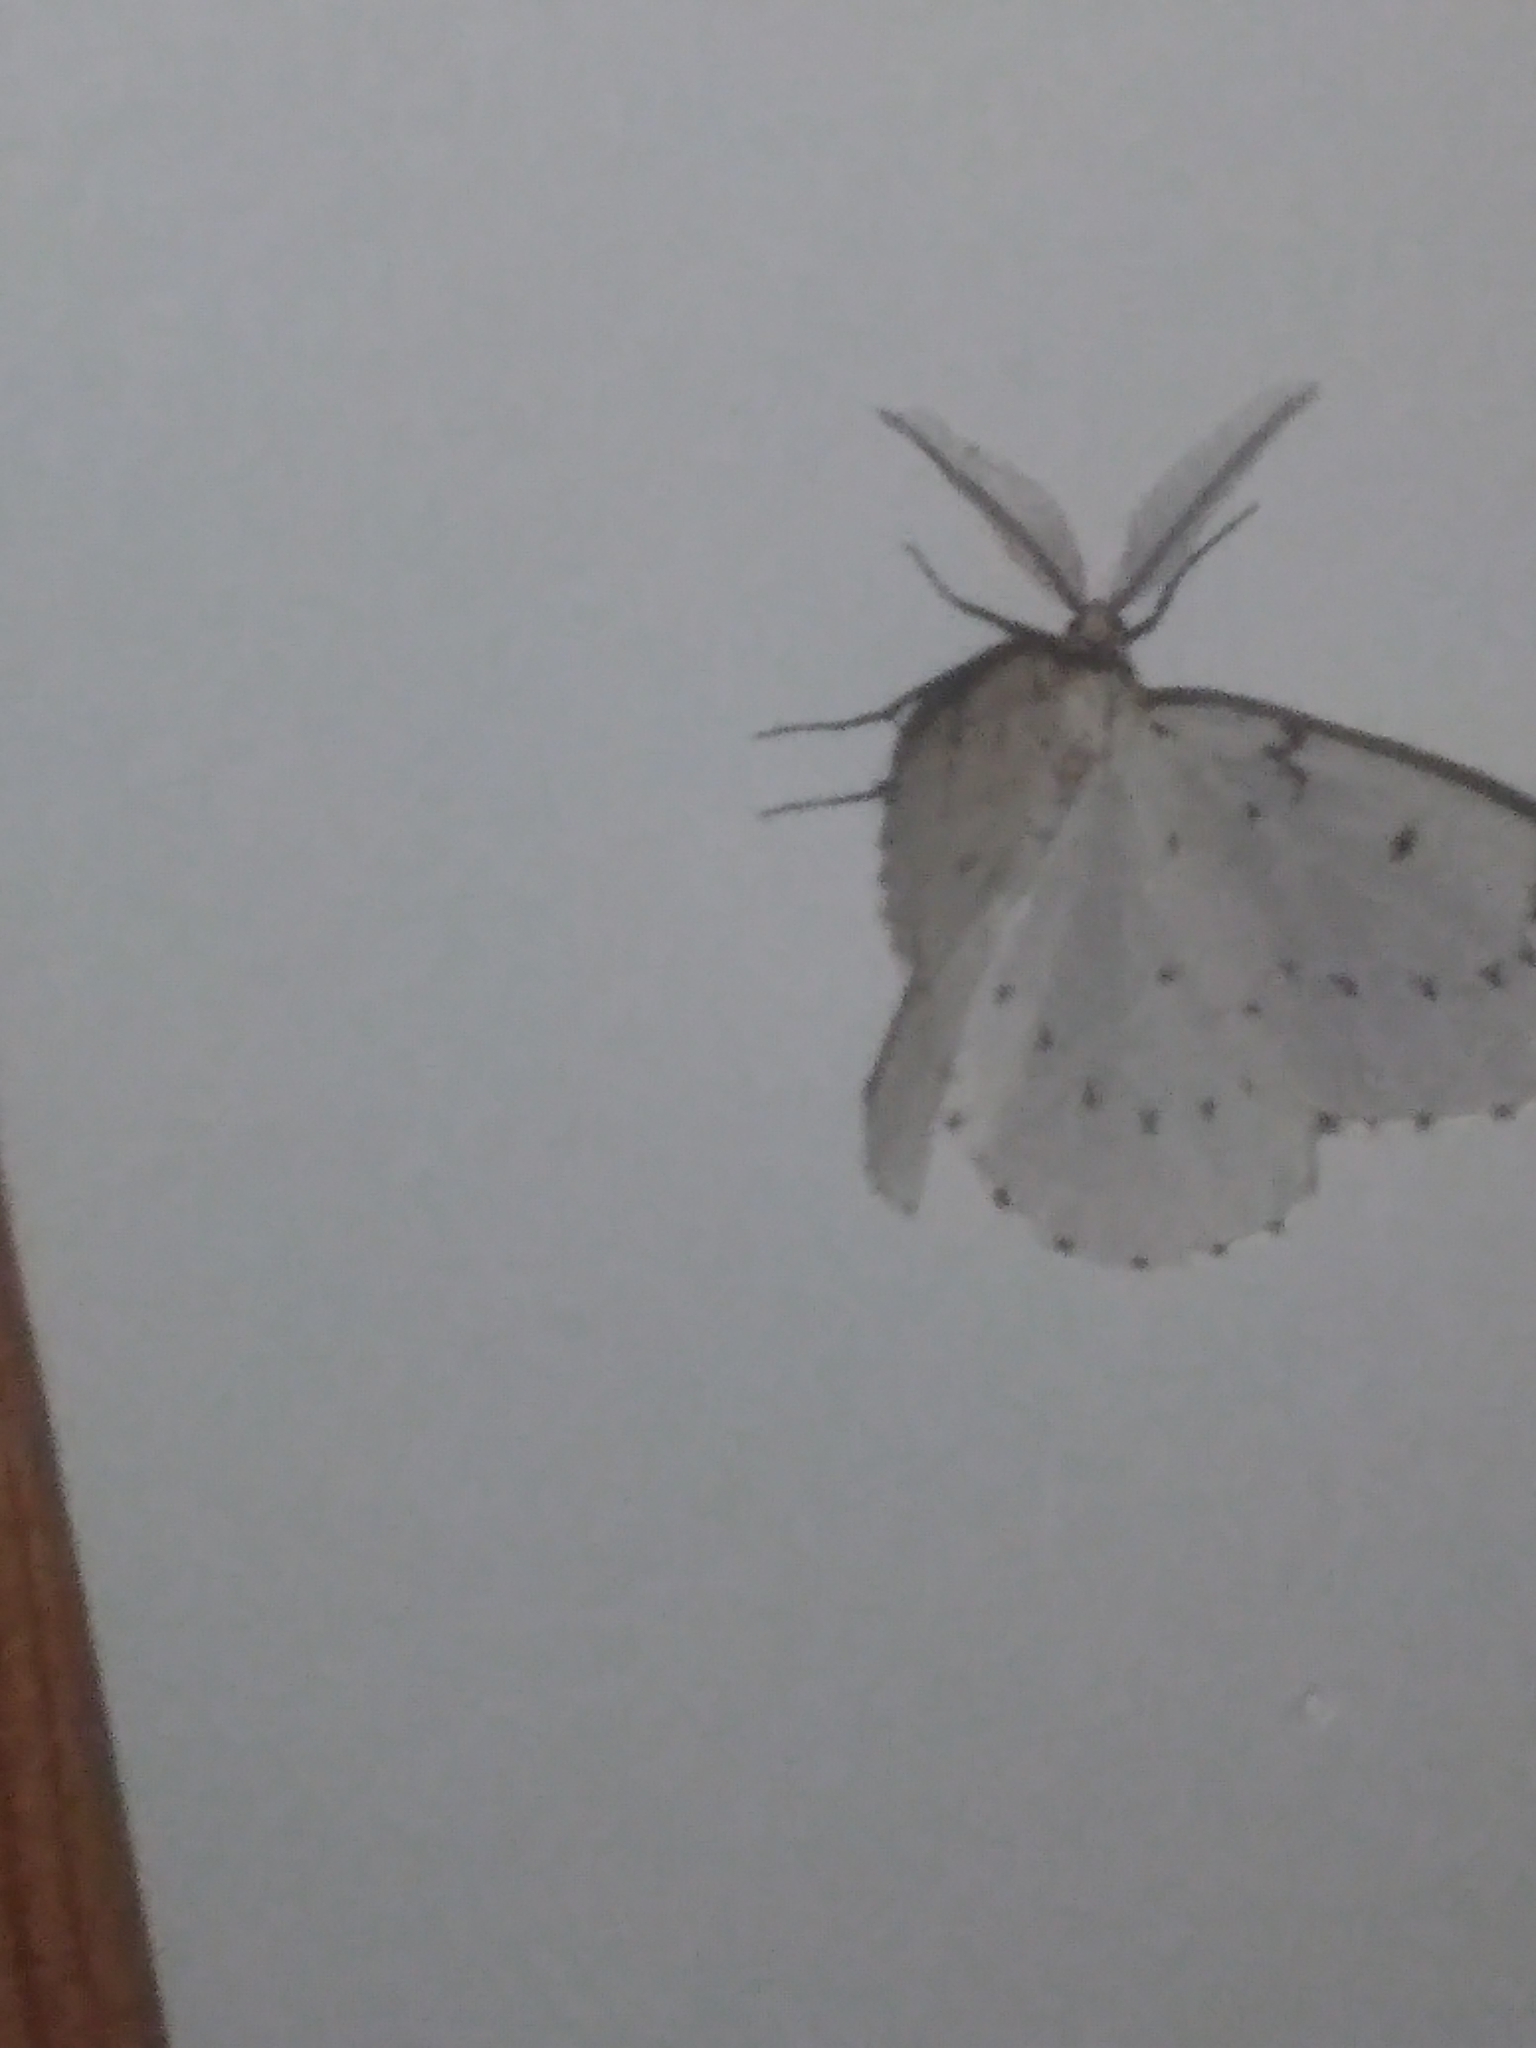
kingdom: Animalia
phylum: Arthropoda
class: Insecta
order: Lepidoptera
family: Geometridae
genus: Cingilia
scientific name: Cingilia catenaria
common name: Chain-dotted geometer
